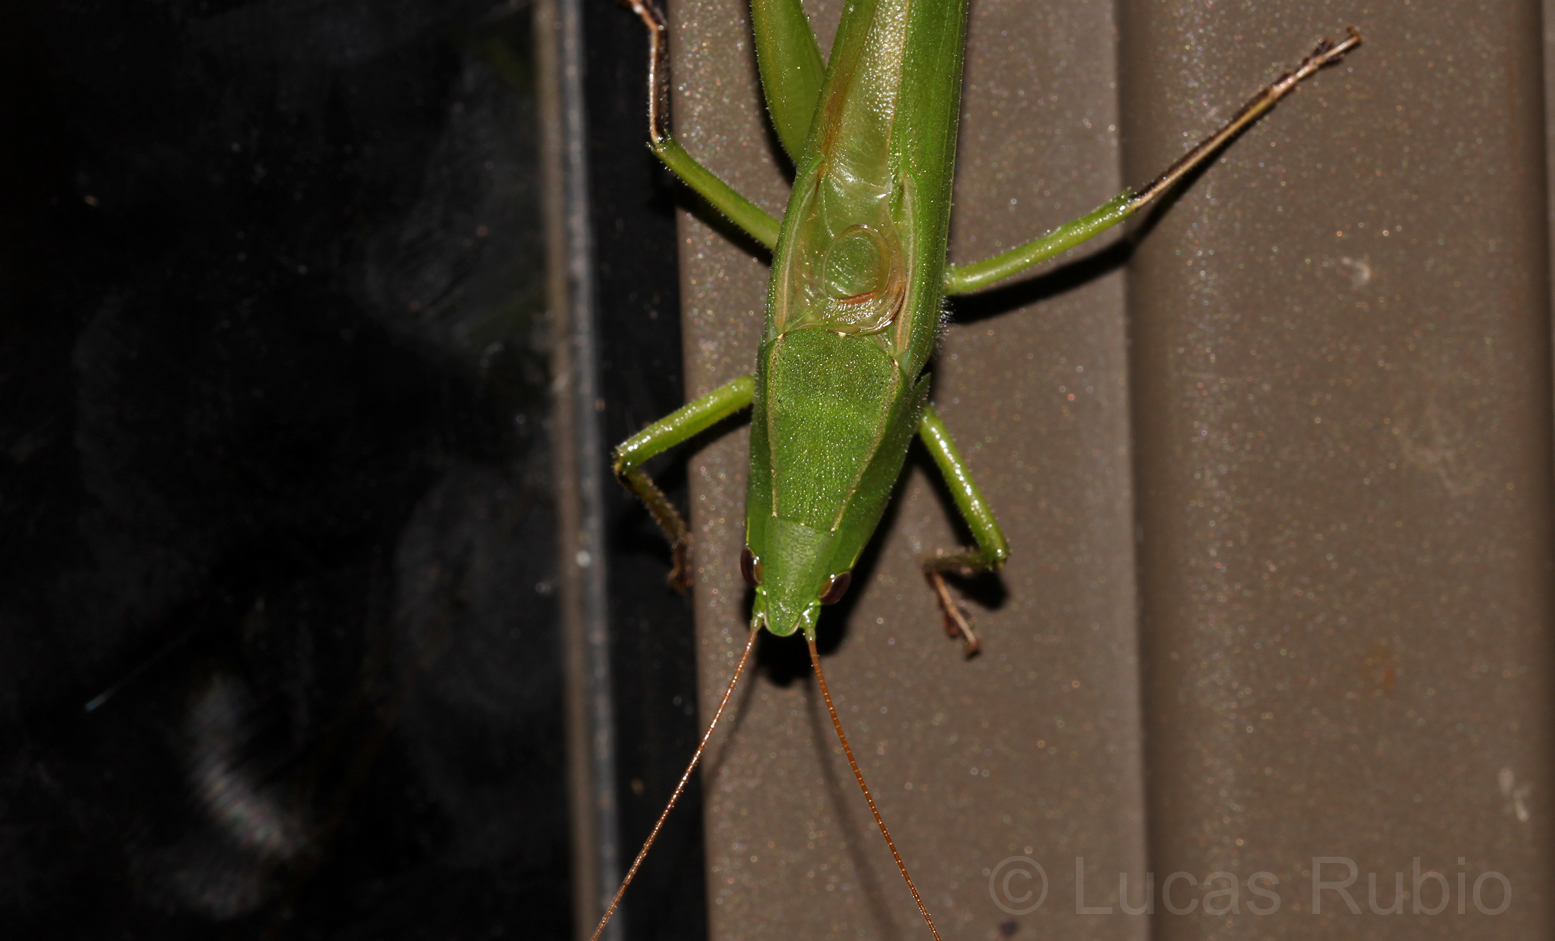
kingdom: Animalia
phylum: Arthropoda
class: Insecta
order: Orthoptera
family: Tettigoniidae
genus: Neoconocephalus
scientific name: Neoconocephalus pullus
